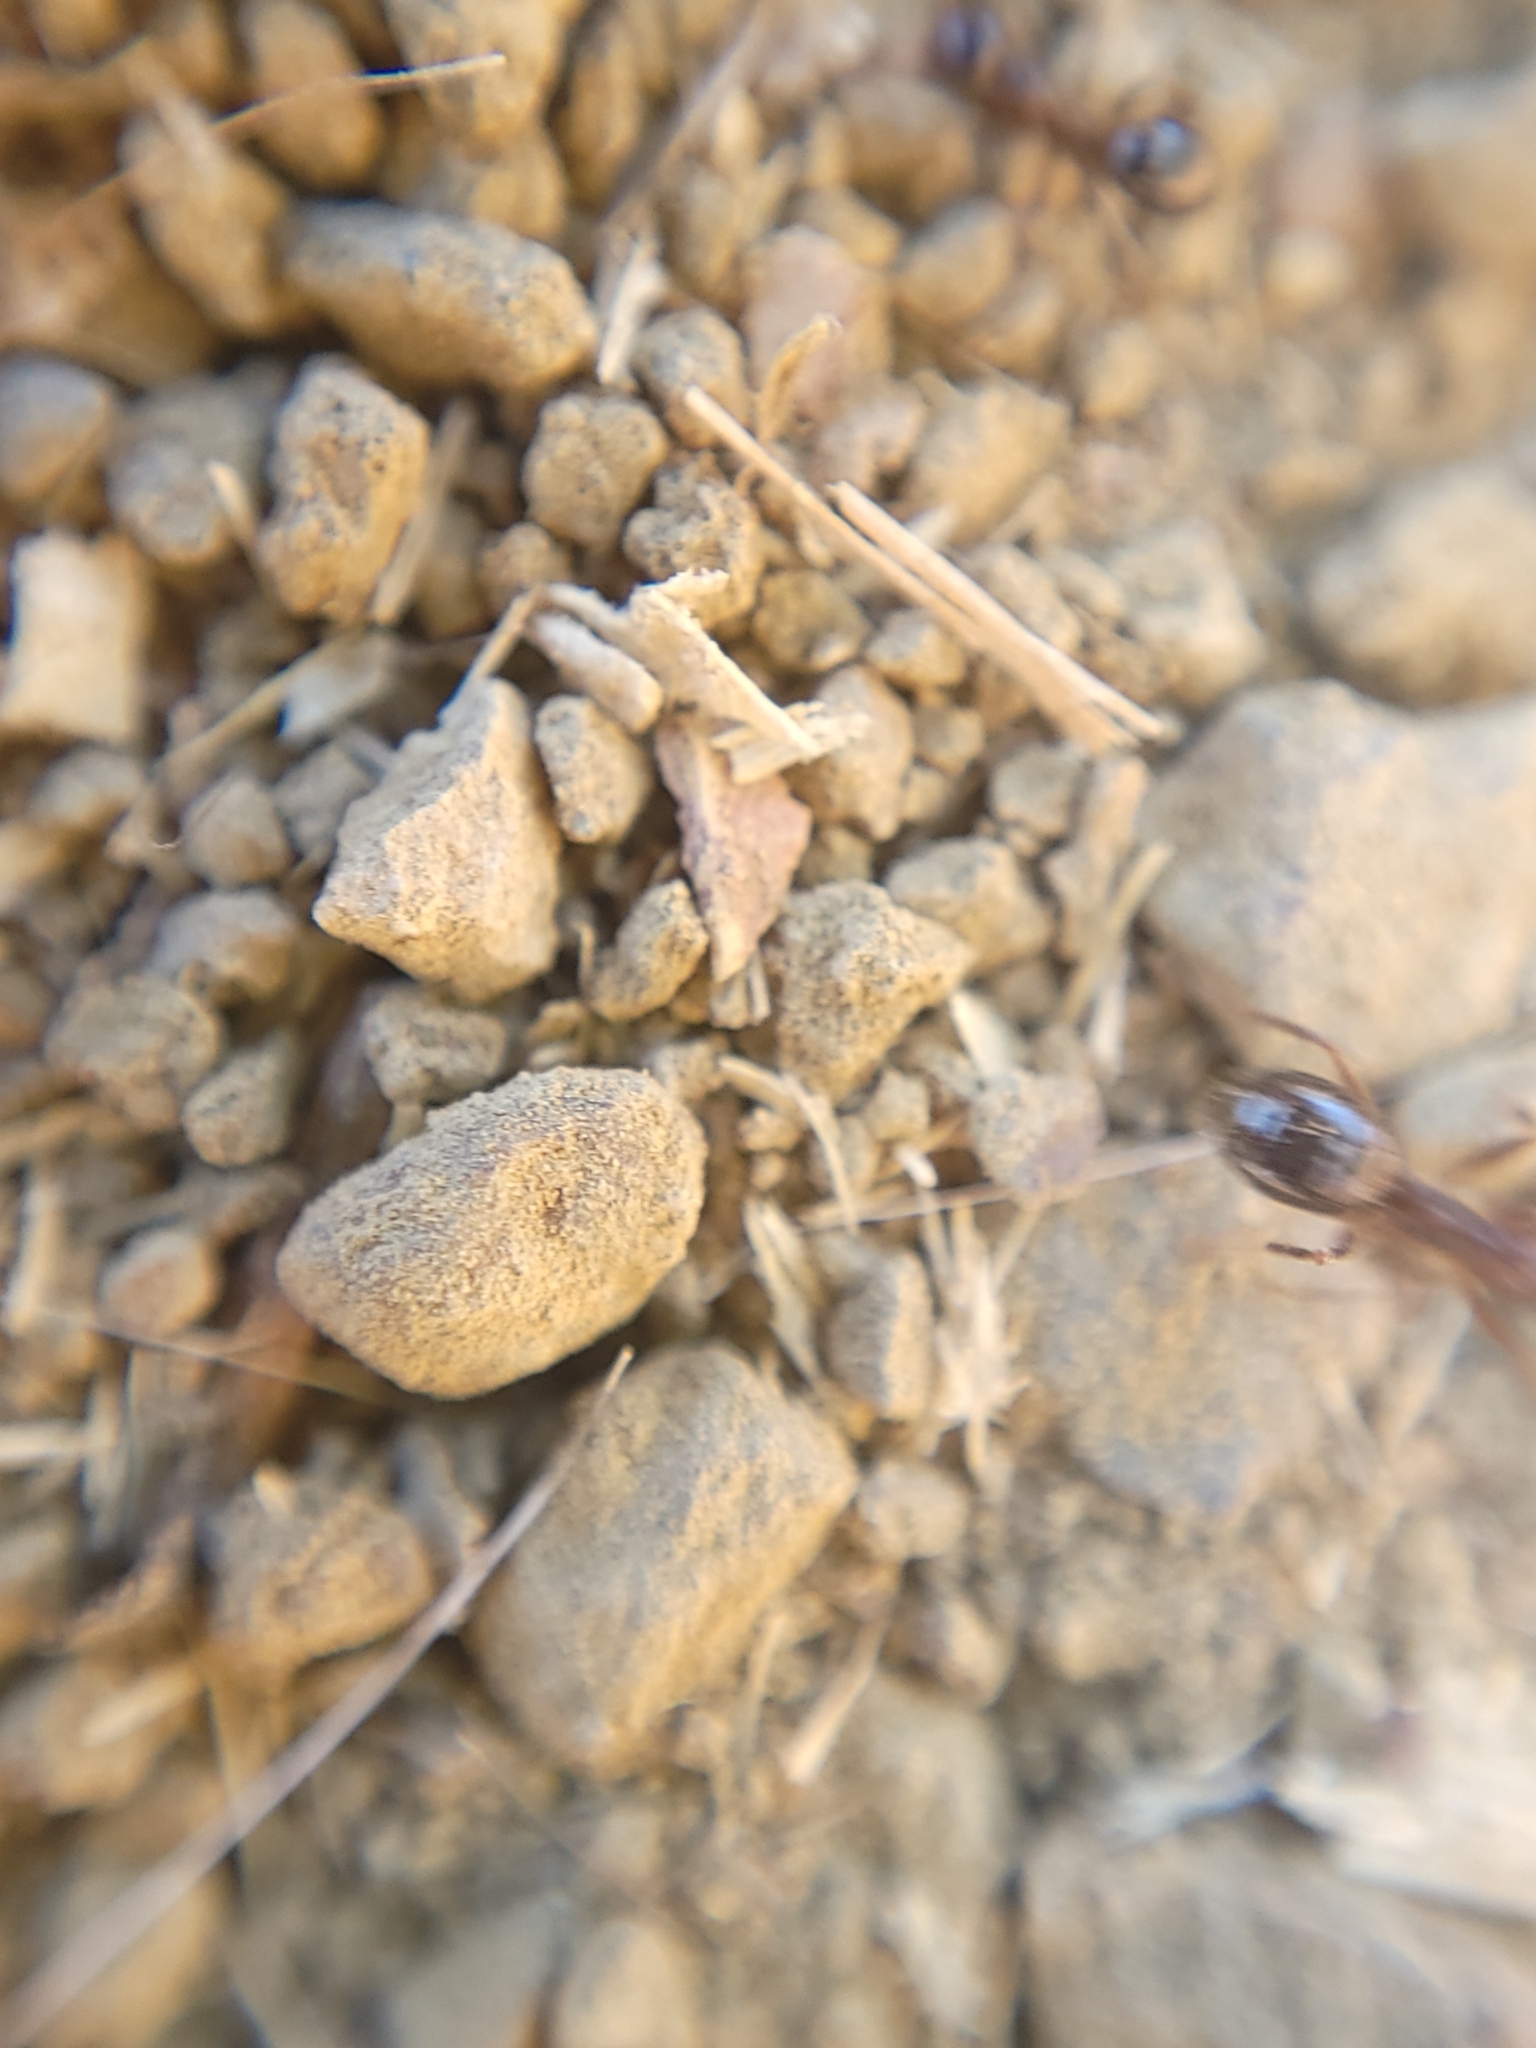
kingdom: Animalia
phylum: Arthropoda
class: Insecta
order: Hymenoptera
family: Formicidae
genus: Formica
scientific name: Formica subpolita
